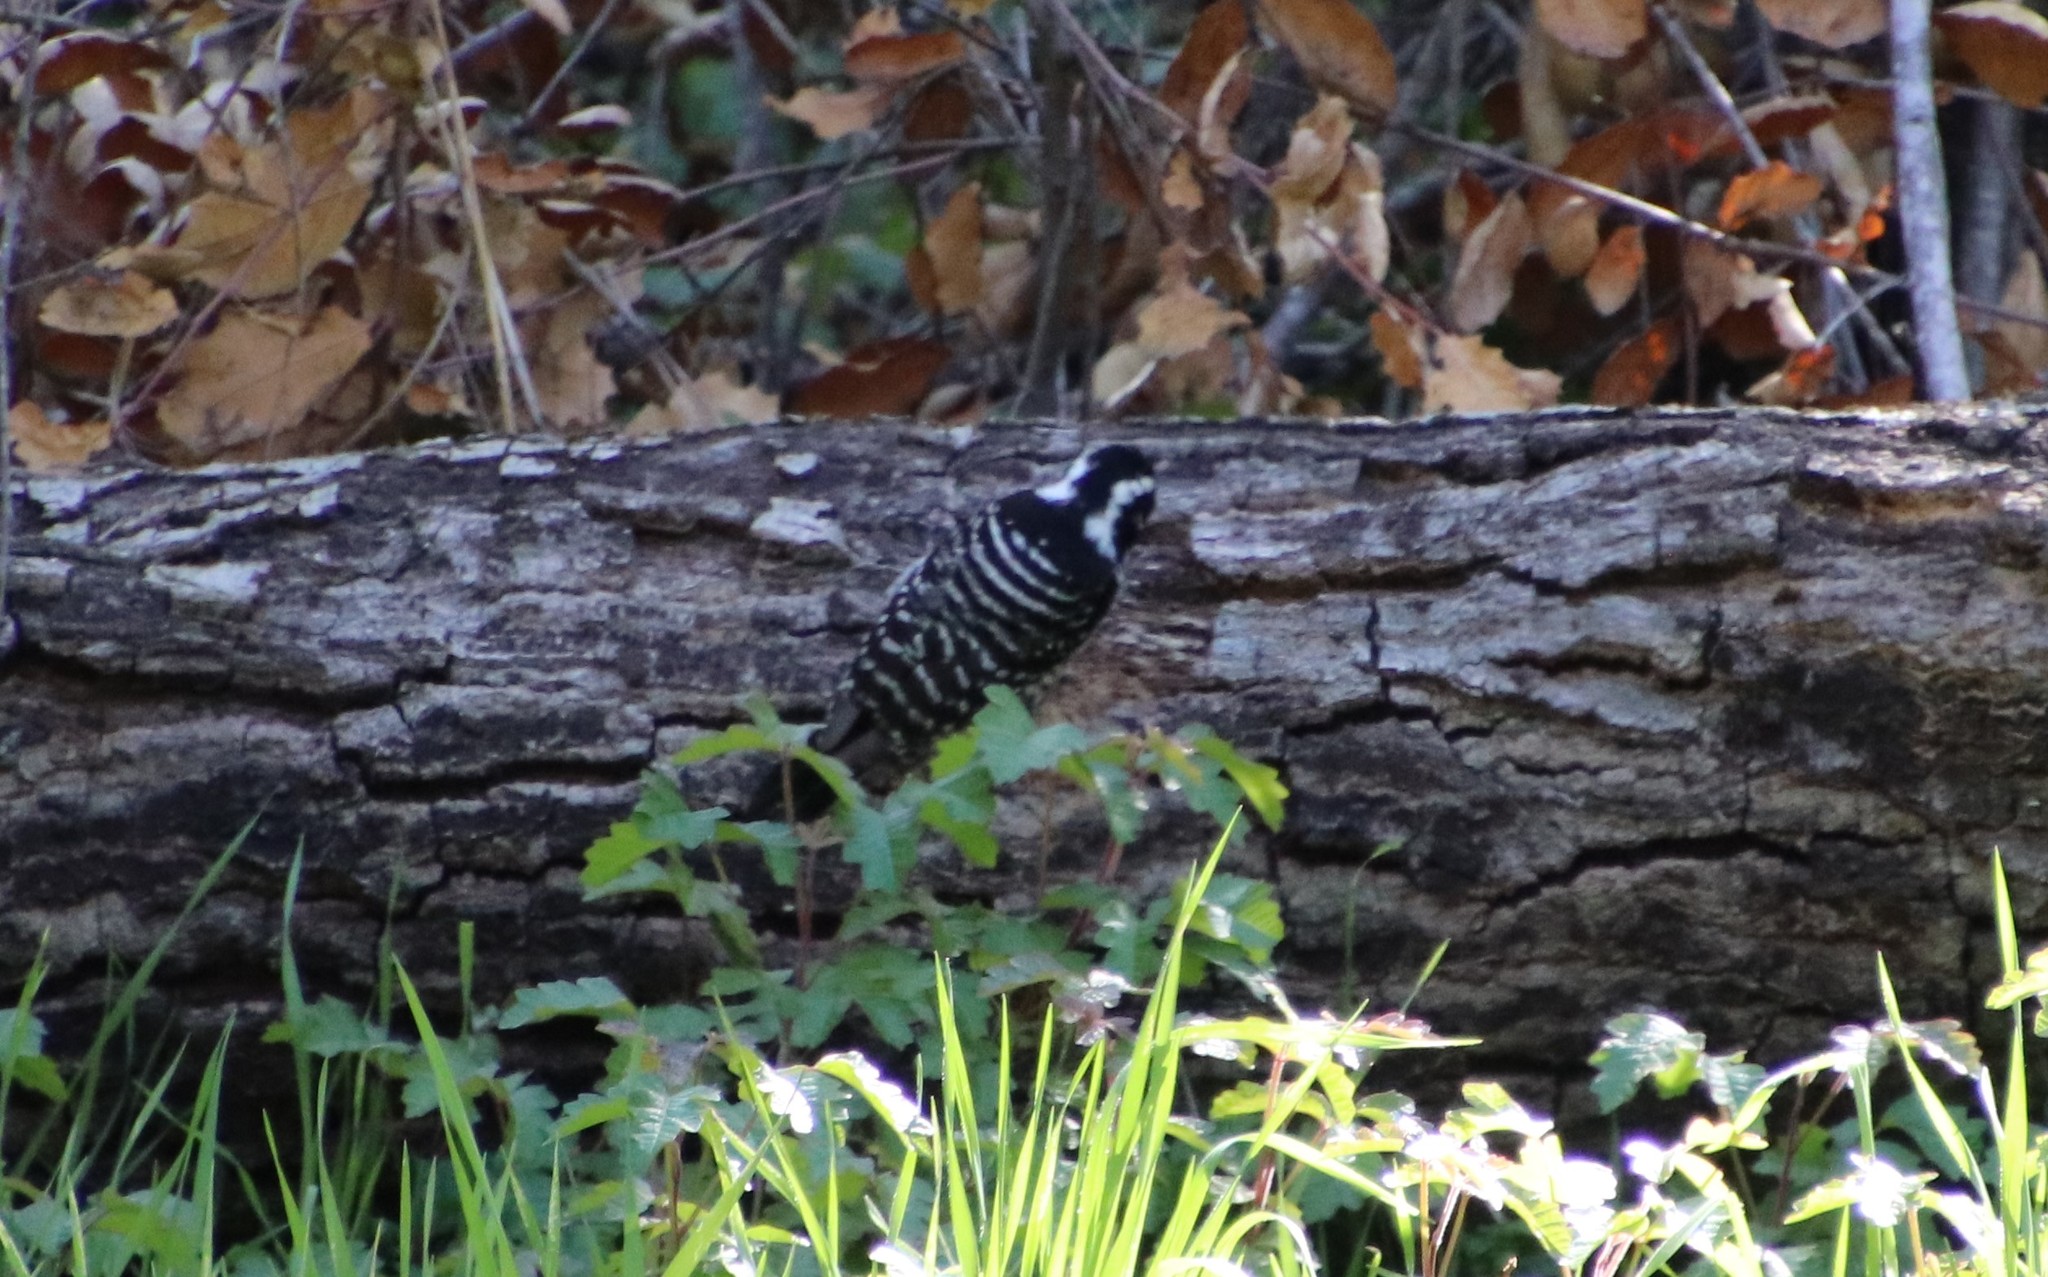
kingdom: Animalia
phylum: Chordata
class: Aves
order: Piciformes
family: Picidae
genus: Dryobates
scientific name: Dryobates nuttallii
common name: Nuttall's woodpecker
